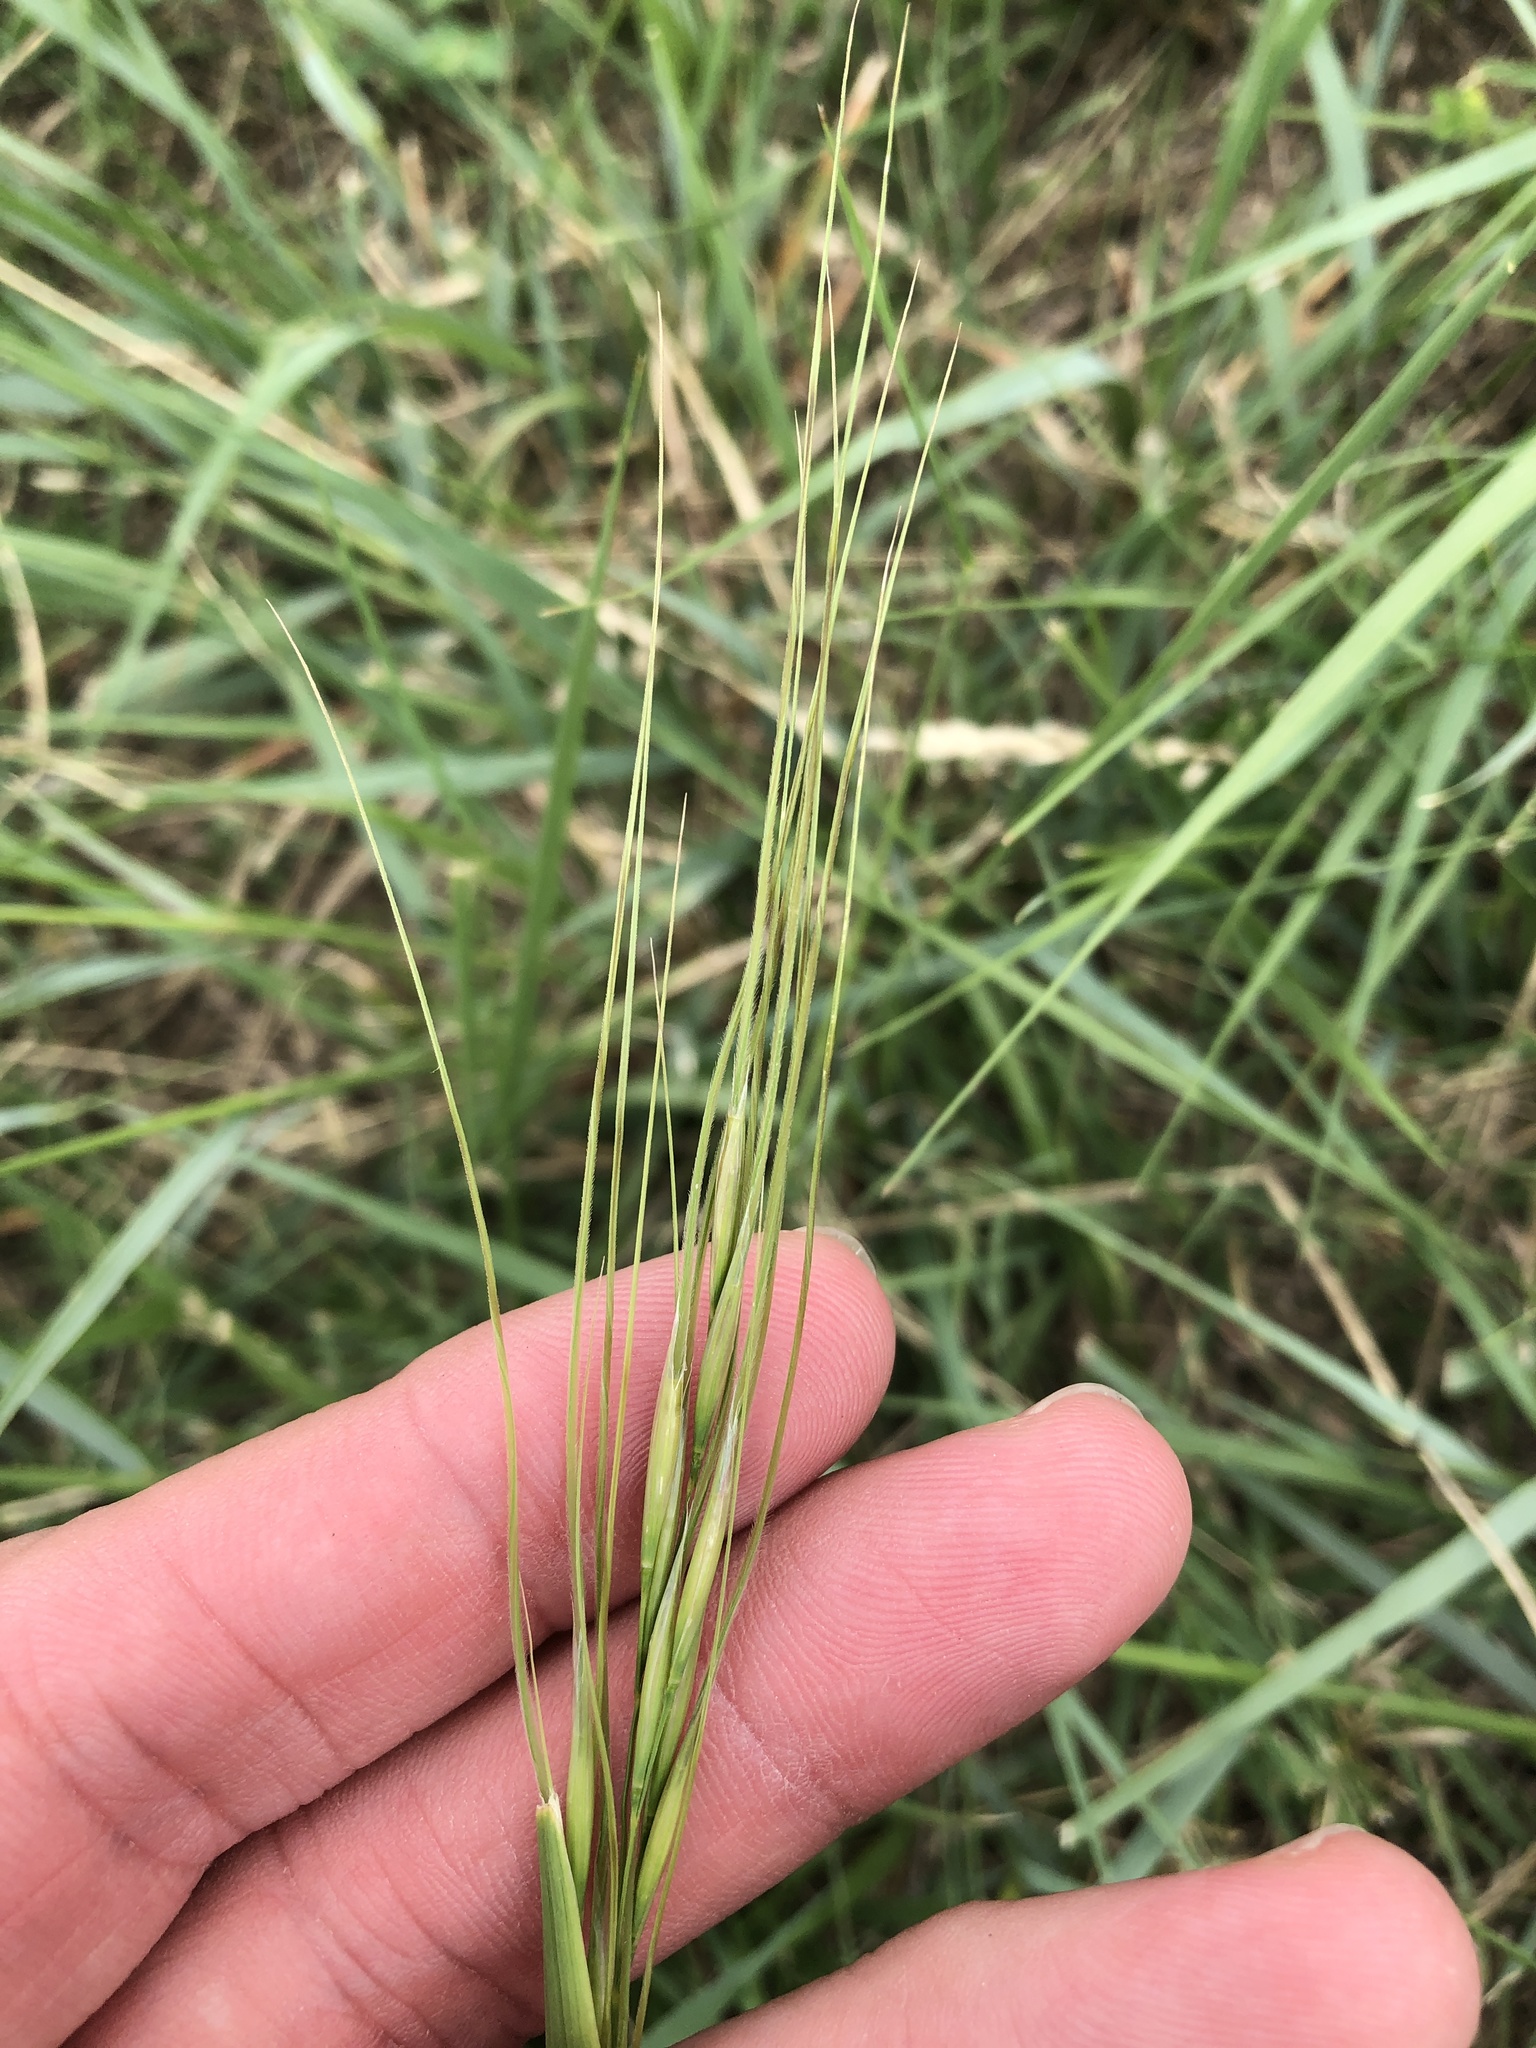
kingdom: Plantae
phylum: Tracheophyta
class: Liliopsida
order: Poales
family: Poaceae
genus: Nassella
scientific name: Nassella leucotricha
